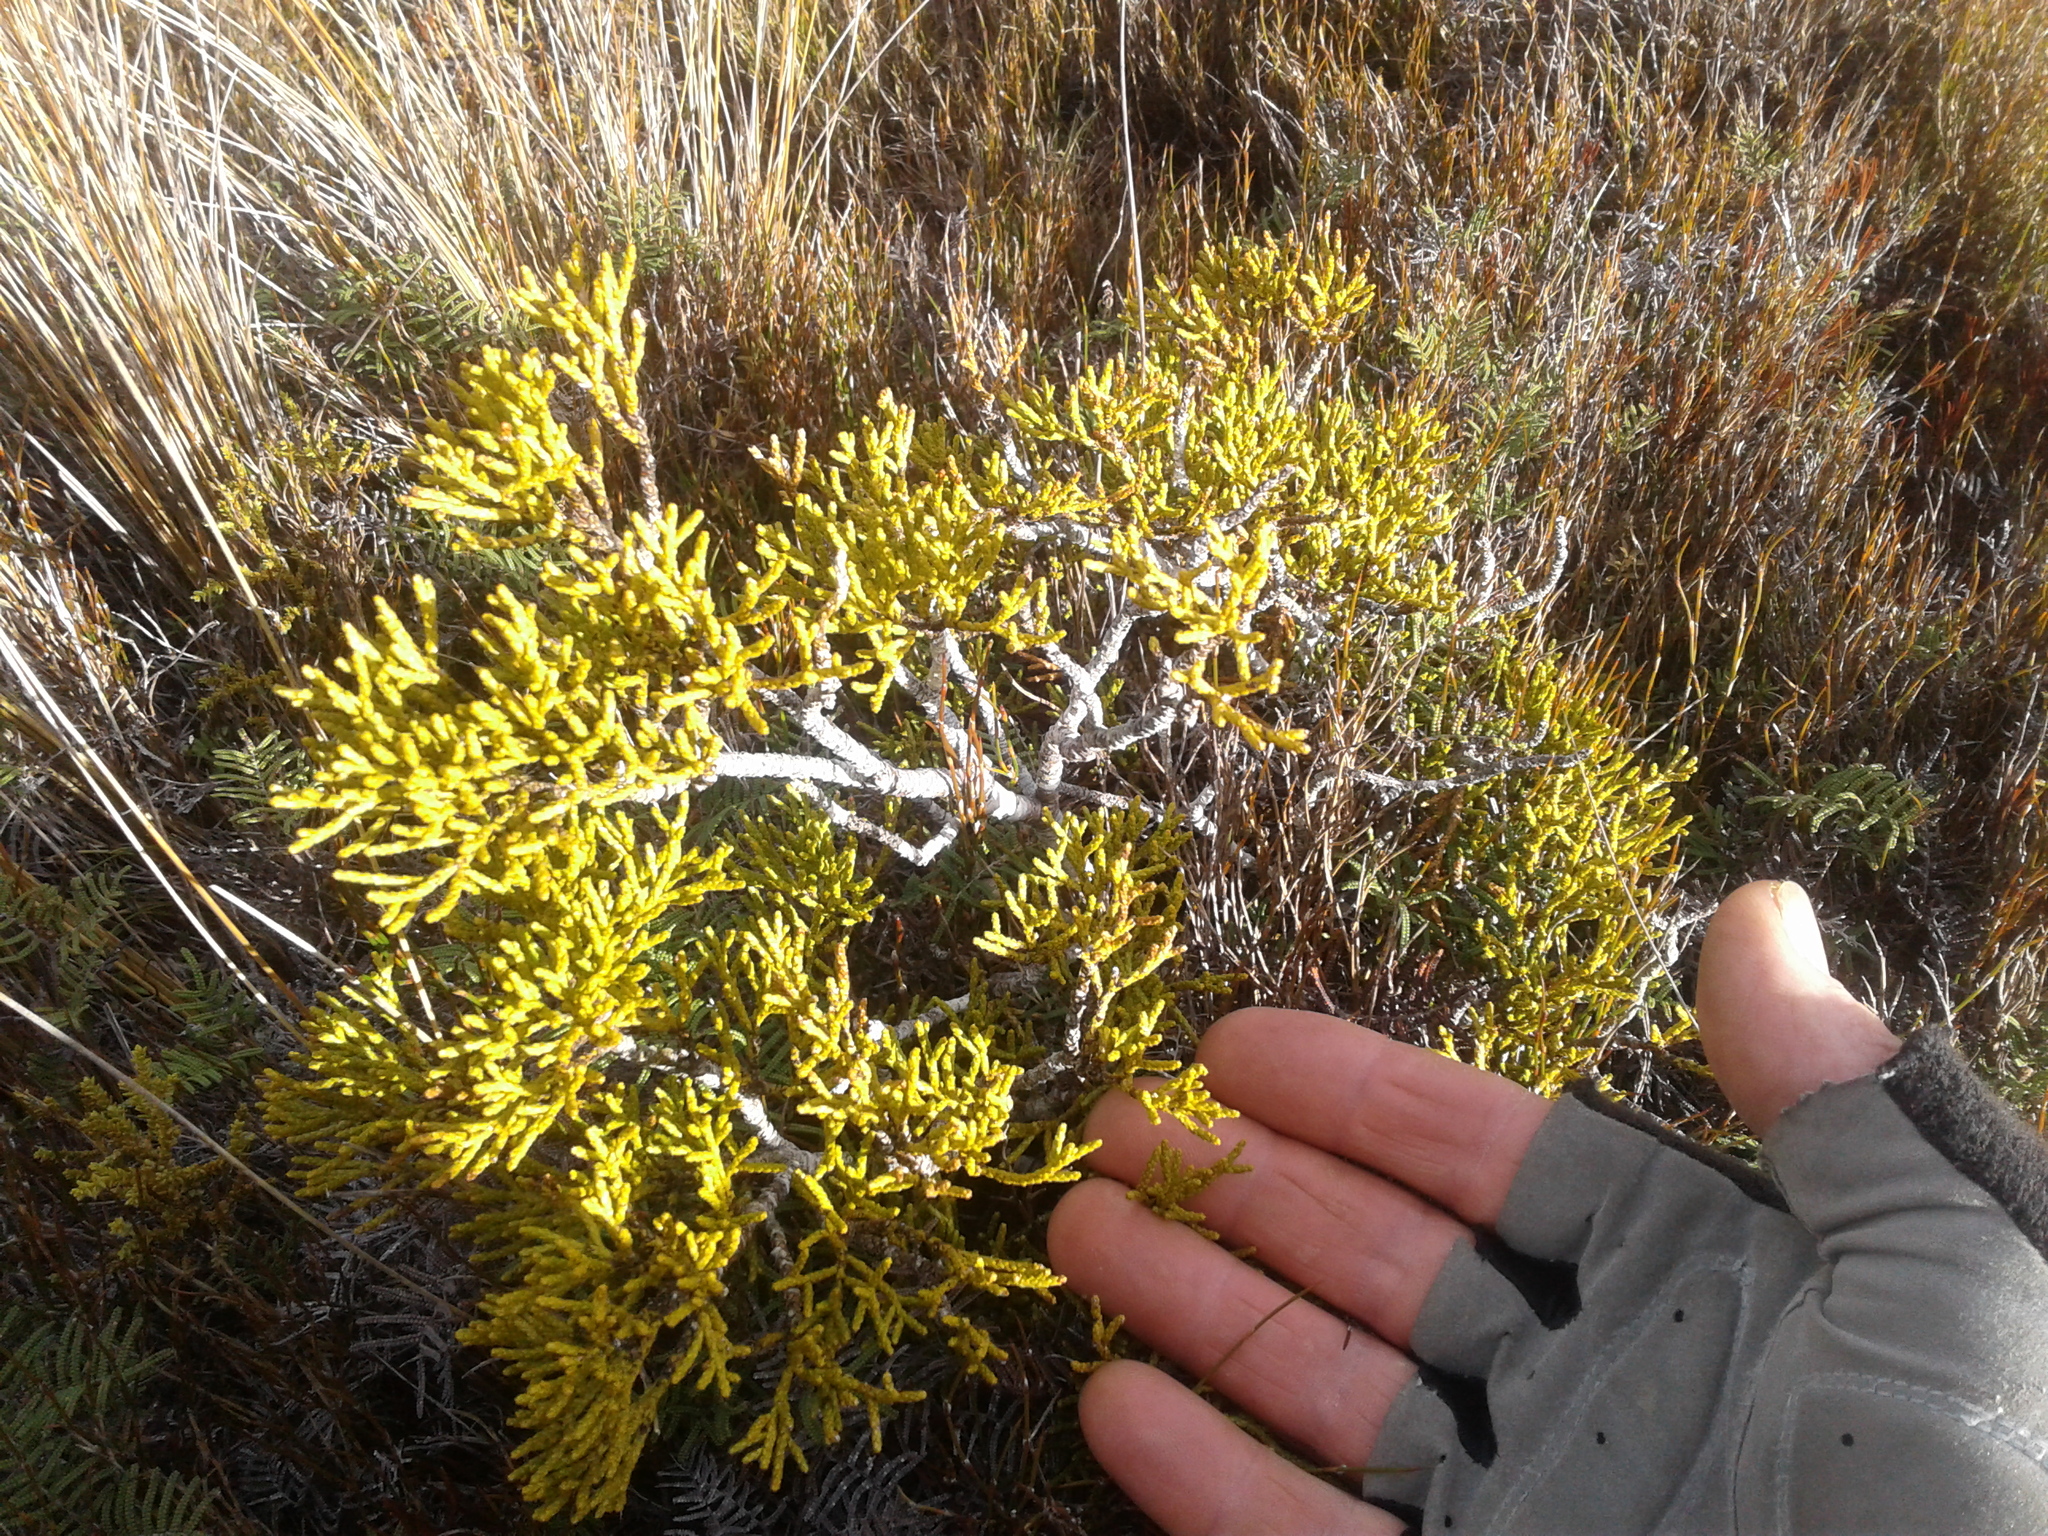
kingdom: Plantae
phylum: Tracheophyta
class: Pinopsida
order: Pinales
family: Podocarpaceae
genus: Halocarpus
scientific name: Halocarpus biformis
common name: Alpine tarwood
